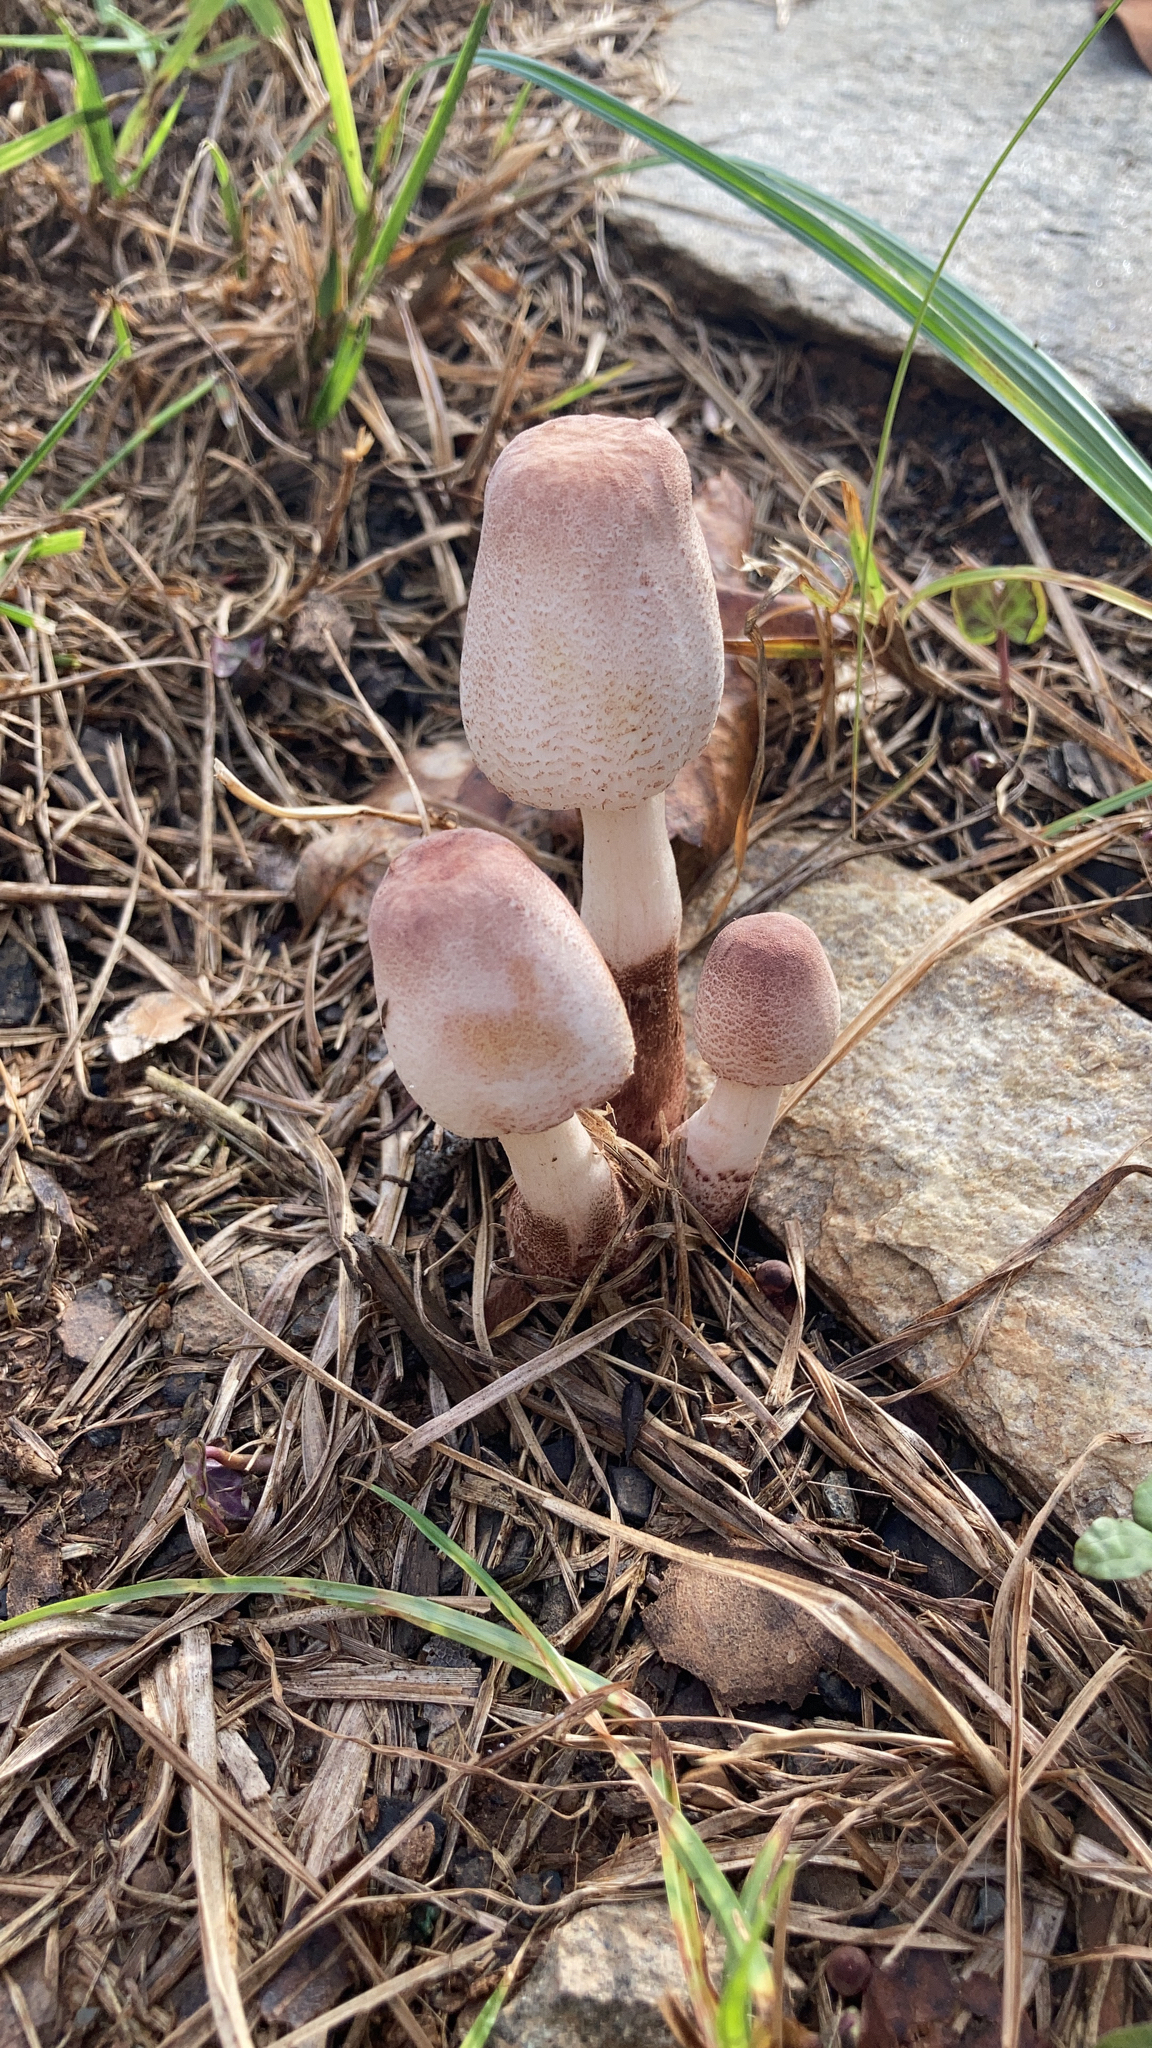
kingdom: Fungi
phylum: Basidiomycota
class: Agaricomycetes
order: Agaricales
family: Agaricaceae
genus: Leucoagaricus
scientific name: Leucoagaricus americanus
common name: Reddening lepiota
